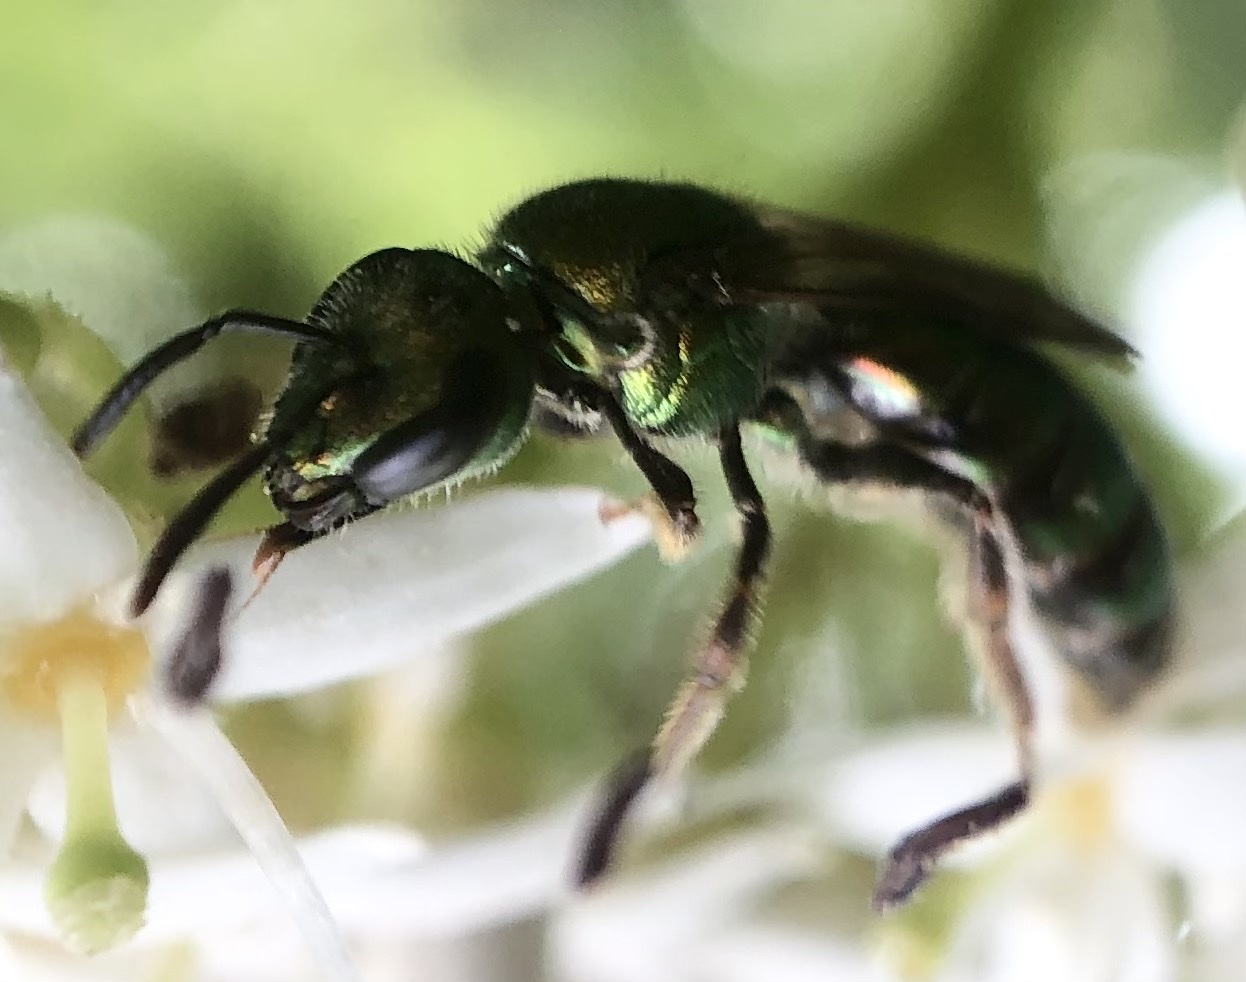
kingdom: Animalia
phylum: Arthropoda
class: Insecta
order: Hymenoptera
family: Halictidae
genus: Augochlora
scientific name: Augochlora pura
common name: Pure green sweat bee
